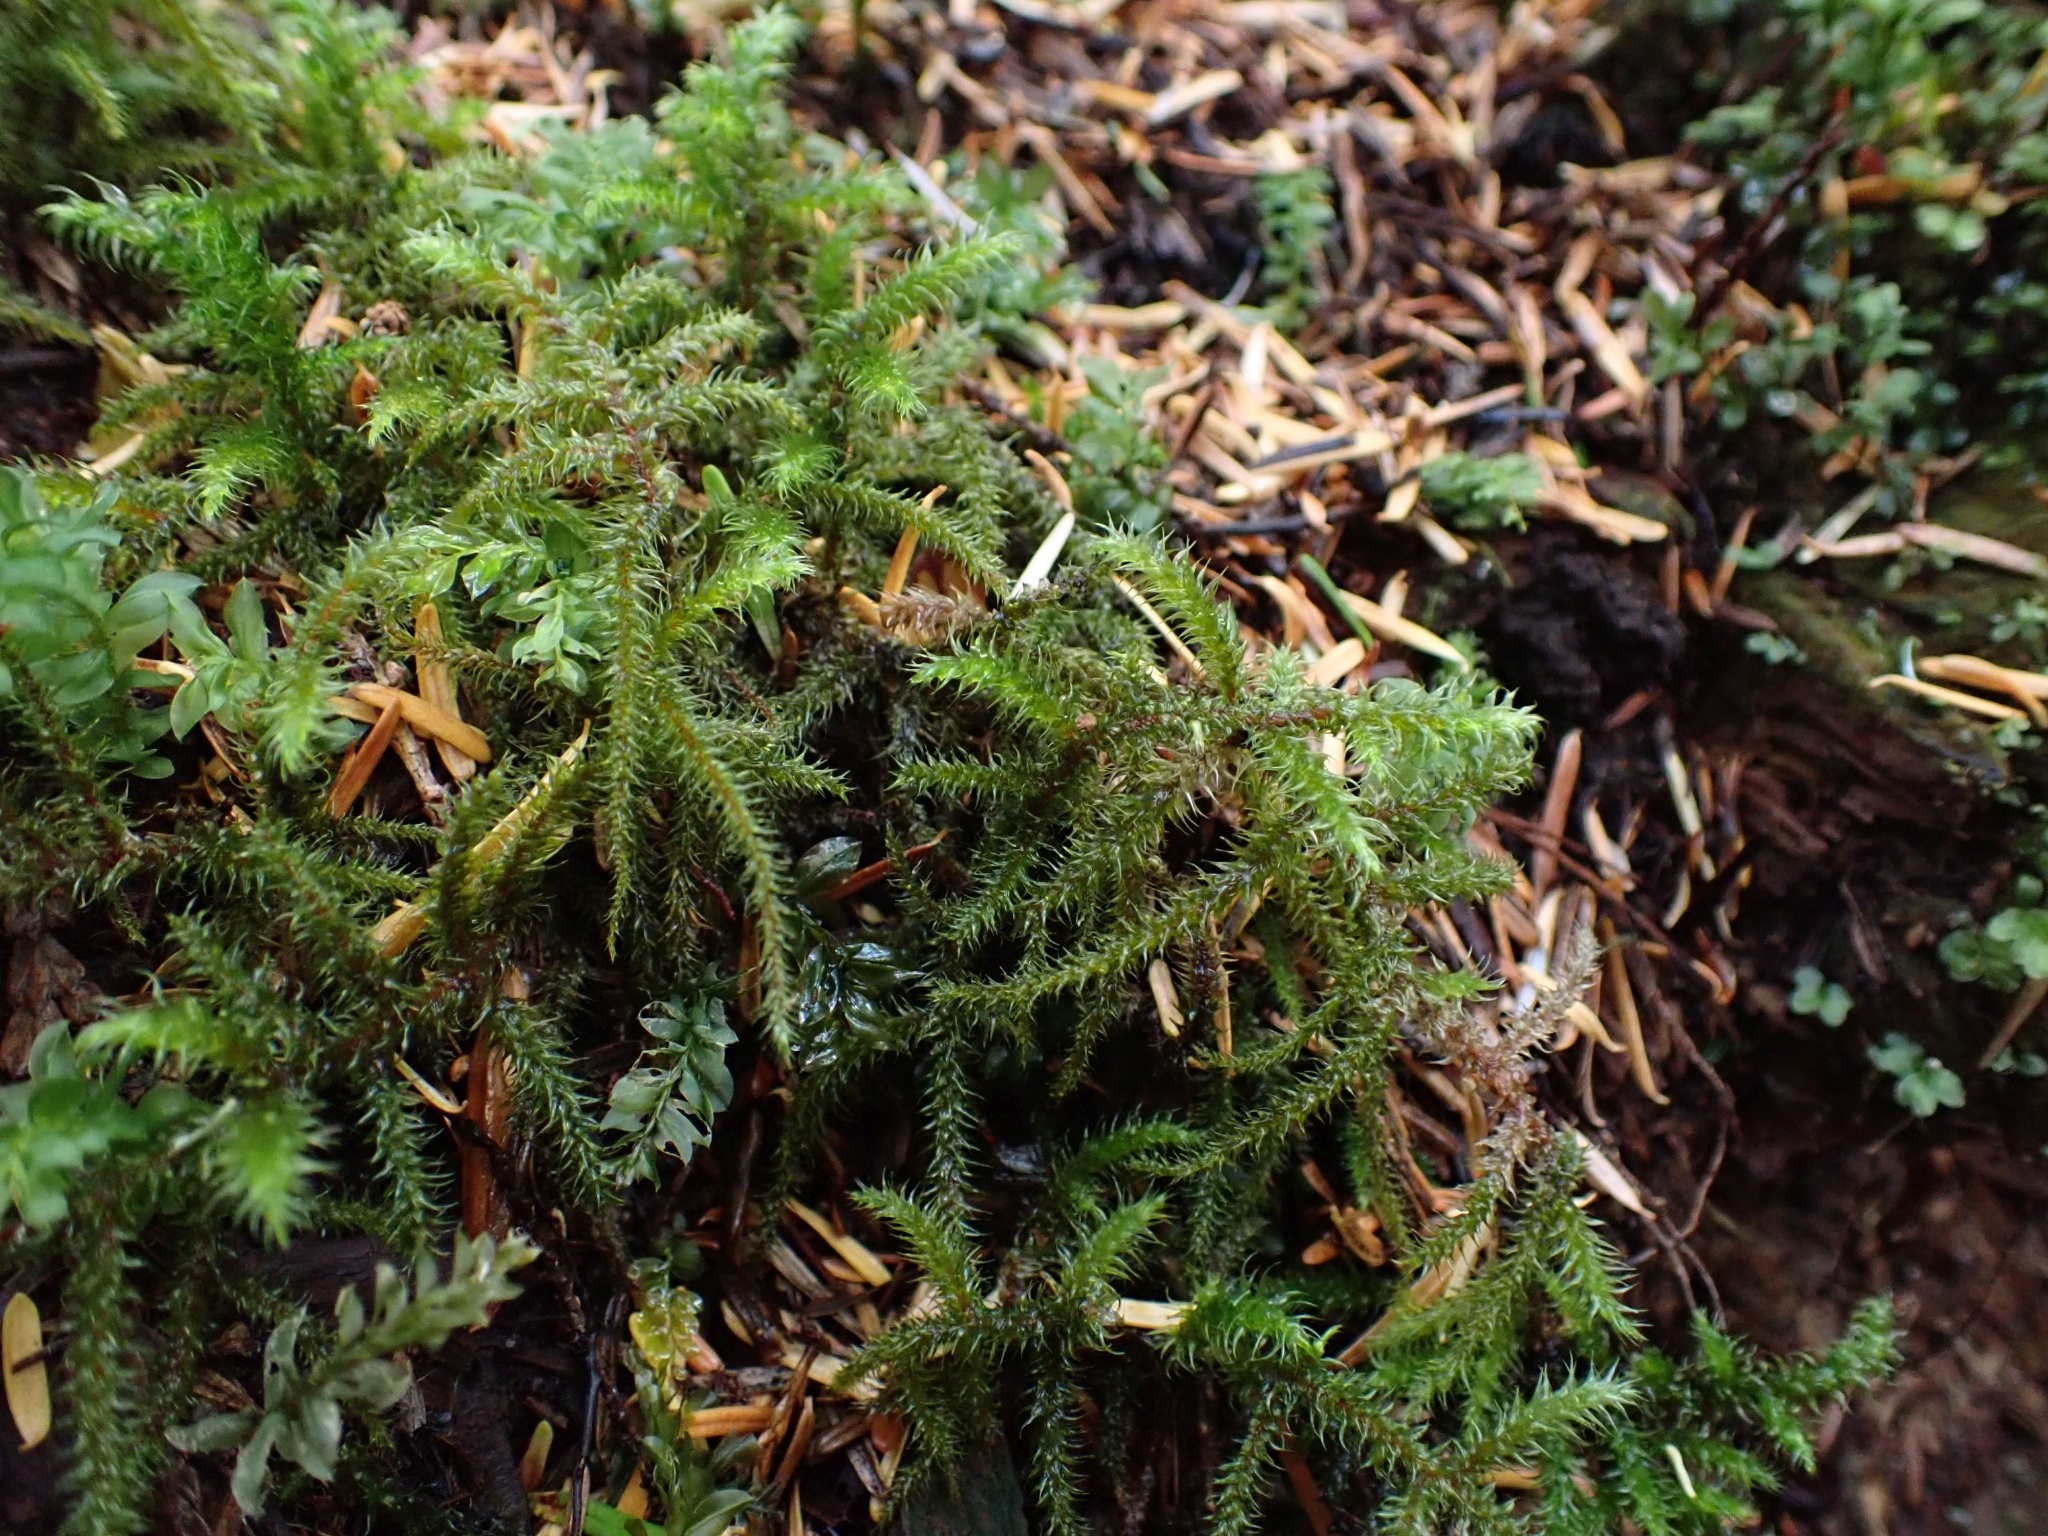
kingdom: Plantae
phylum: Bryophyta
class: Bryopsida
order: Hypnales
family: Hylocomiaceae
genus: Rhytidiadelphus
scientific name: Rhytidiadelphus loreus
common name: Lanky moss
